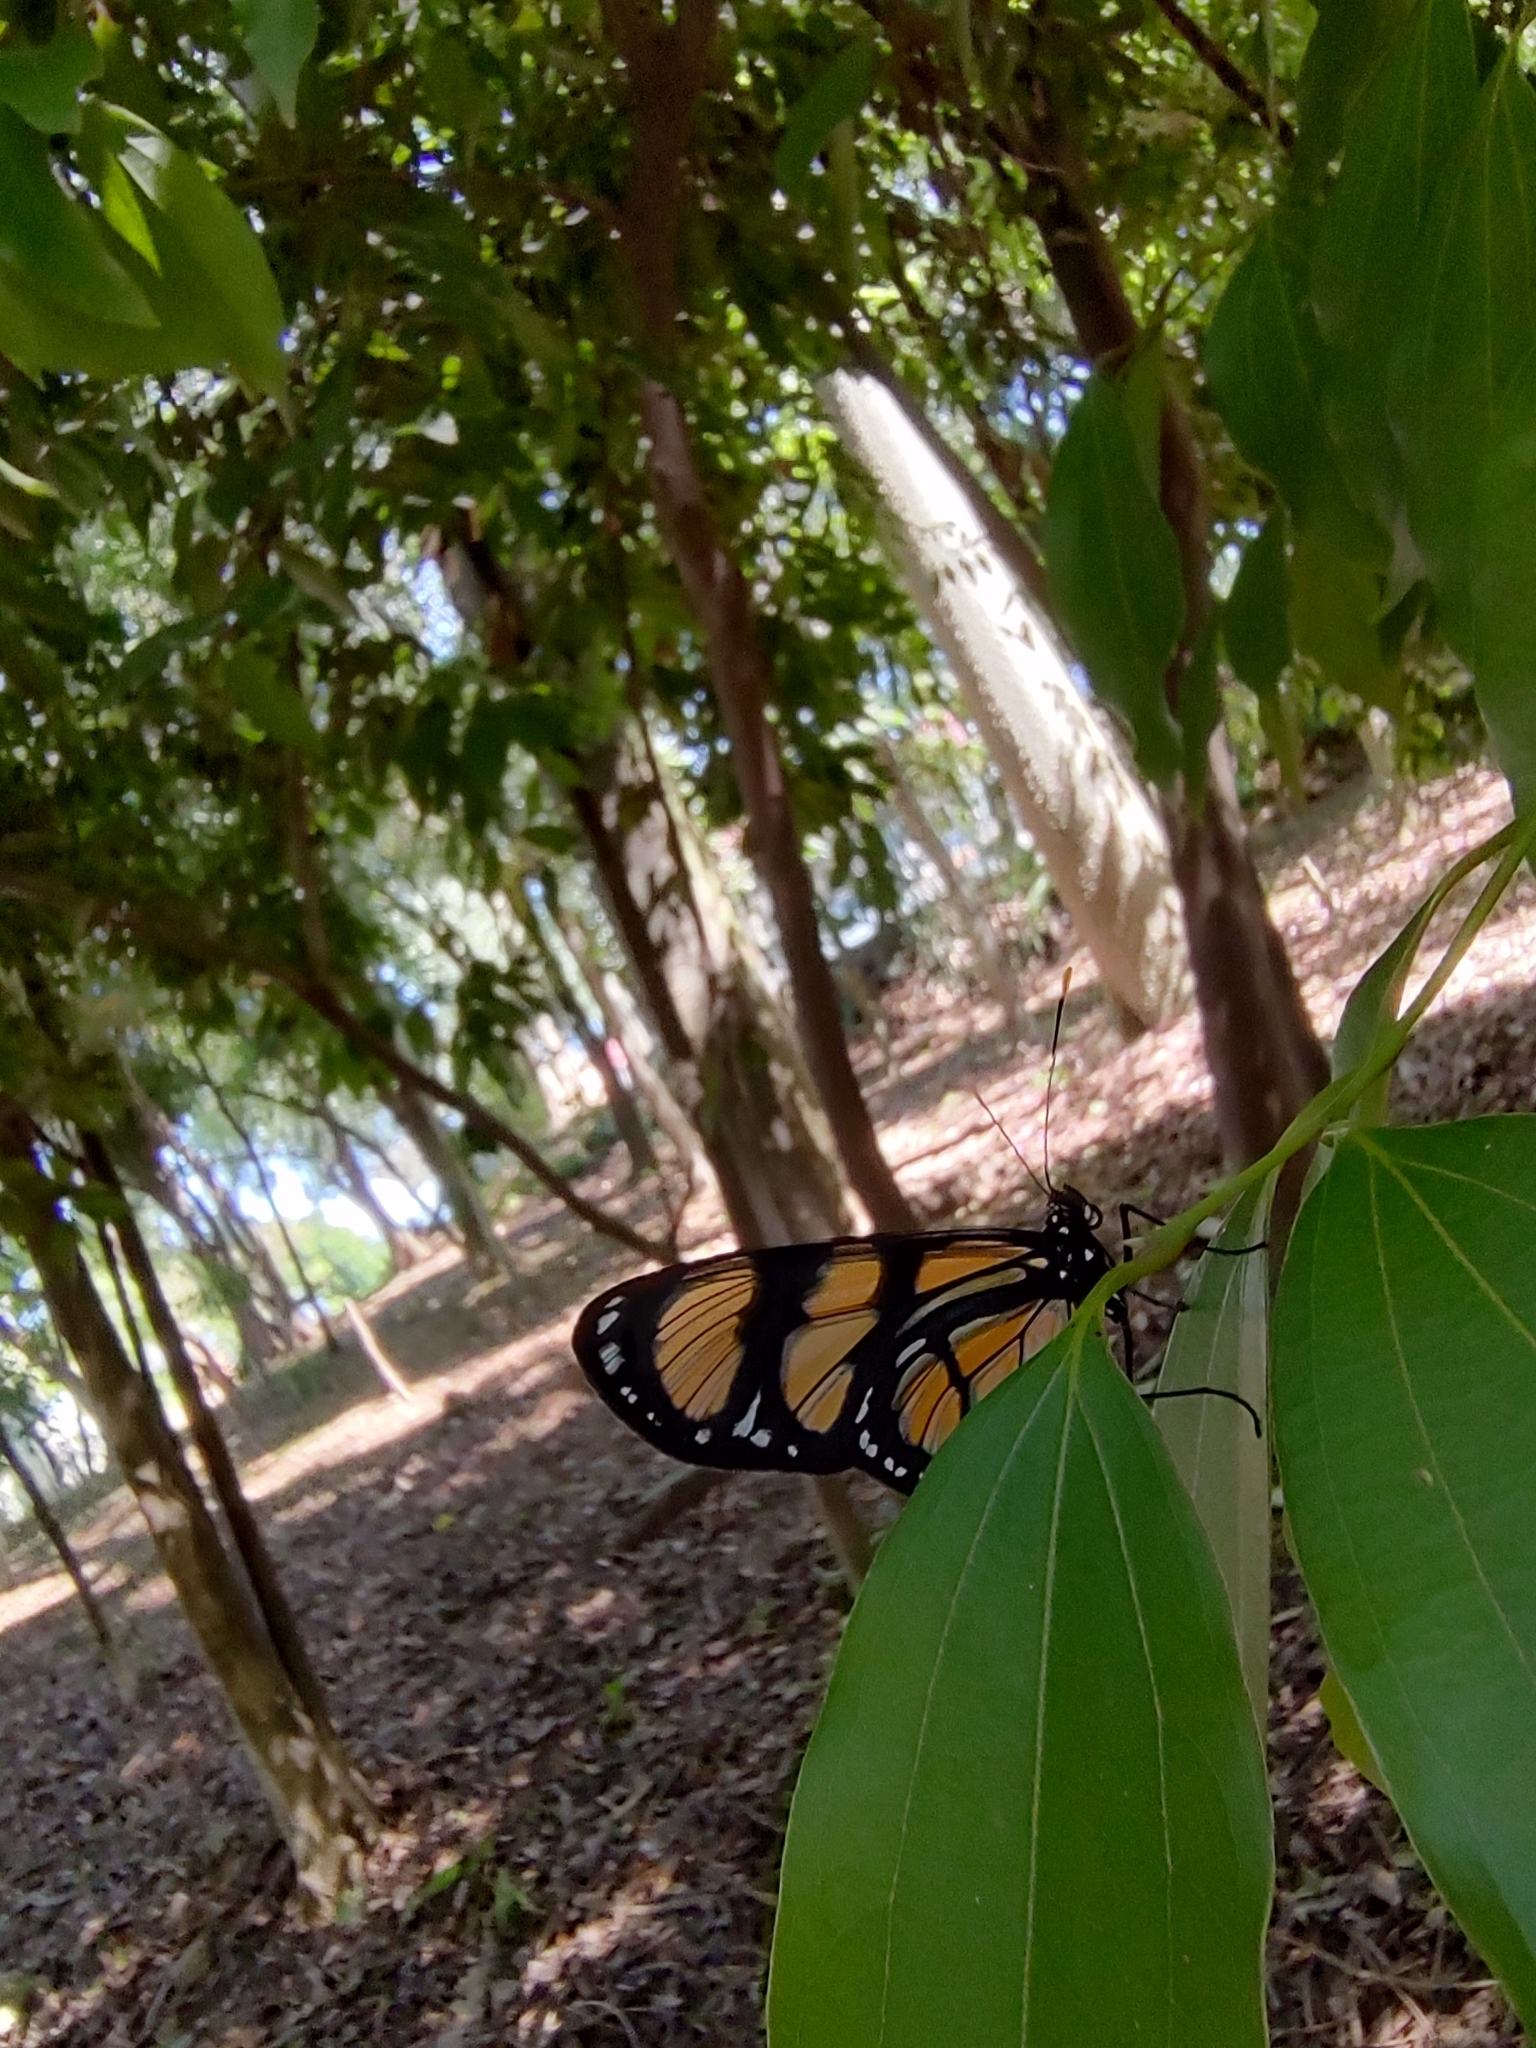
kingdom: Animalia
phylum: Arthropoda
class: Insecta
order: Lepidoptera
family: Nymphalidae
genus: Methona
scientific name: Methona themisto
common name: Themisto amberwing
